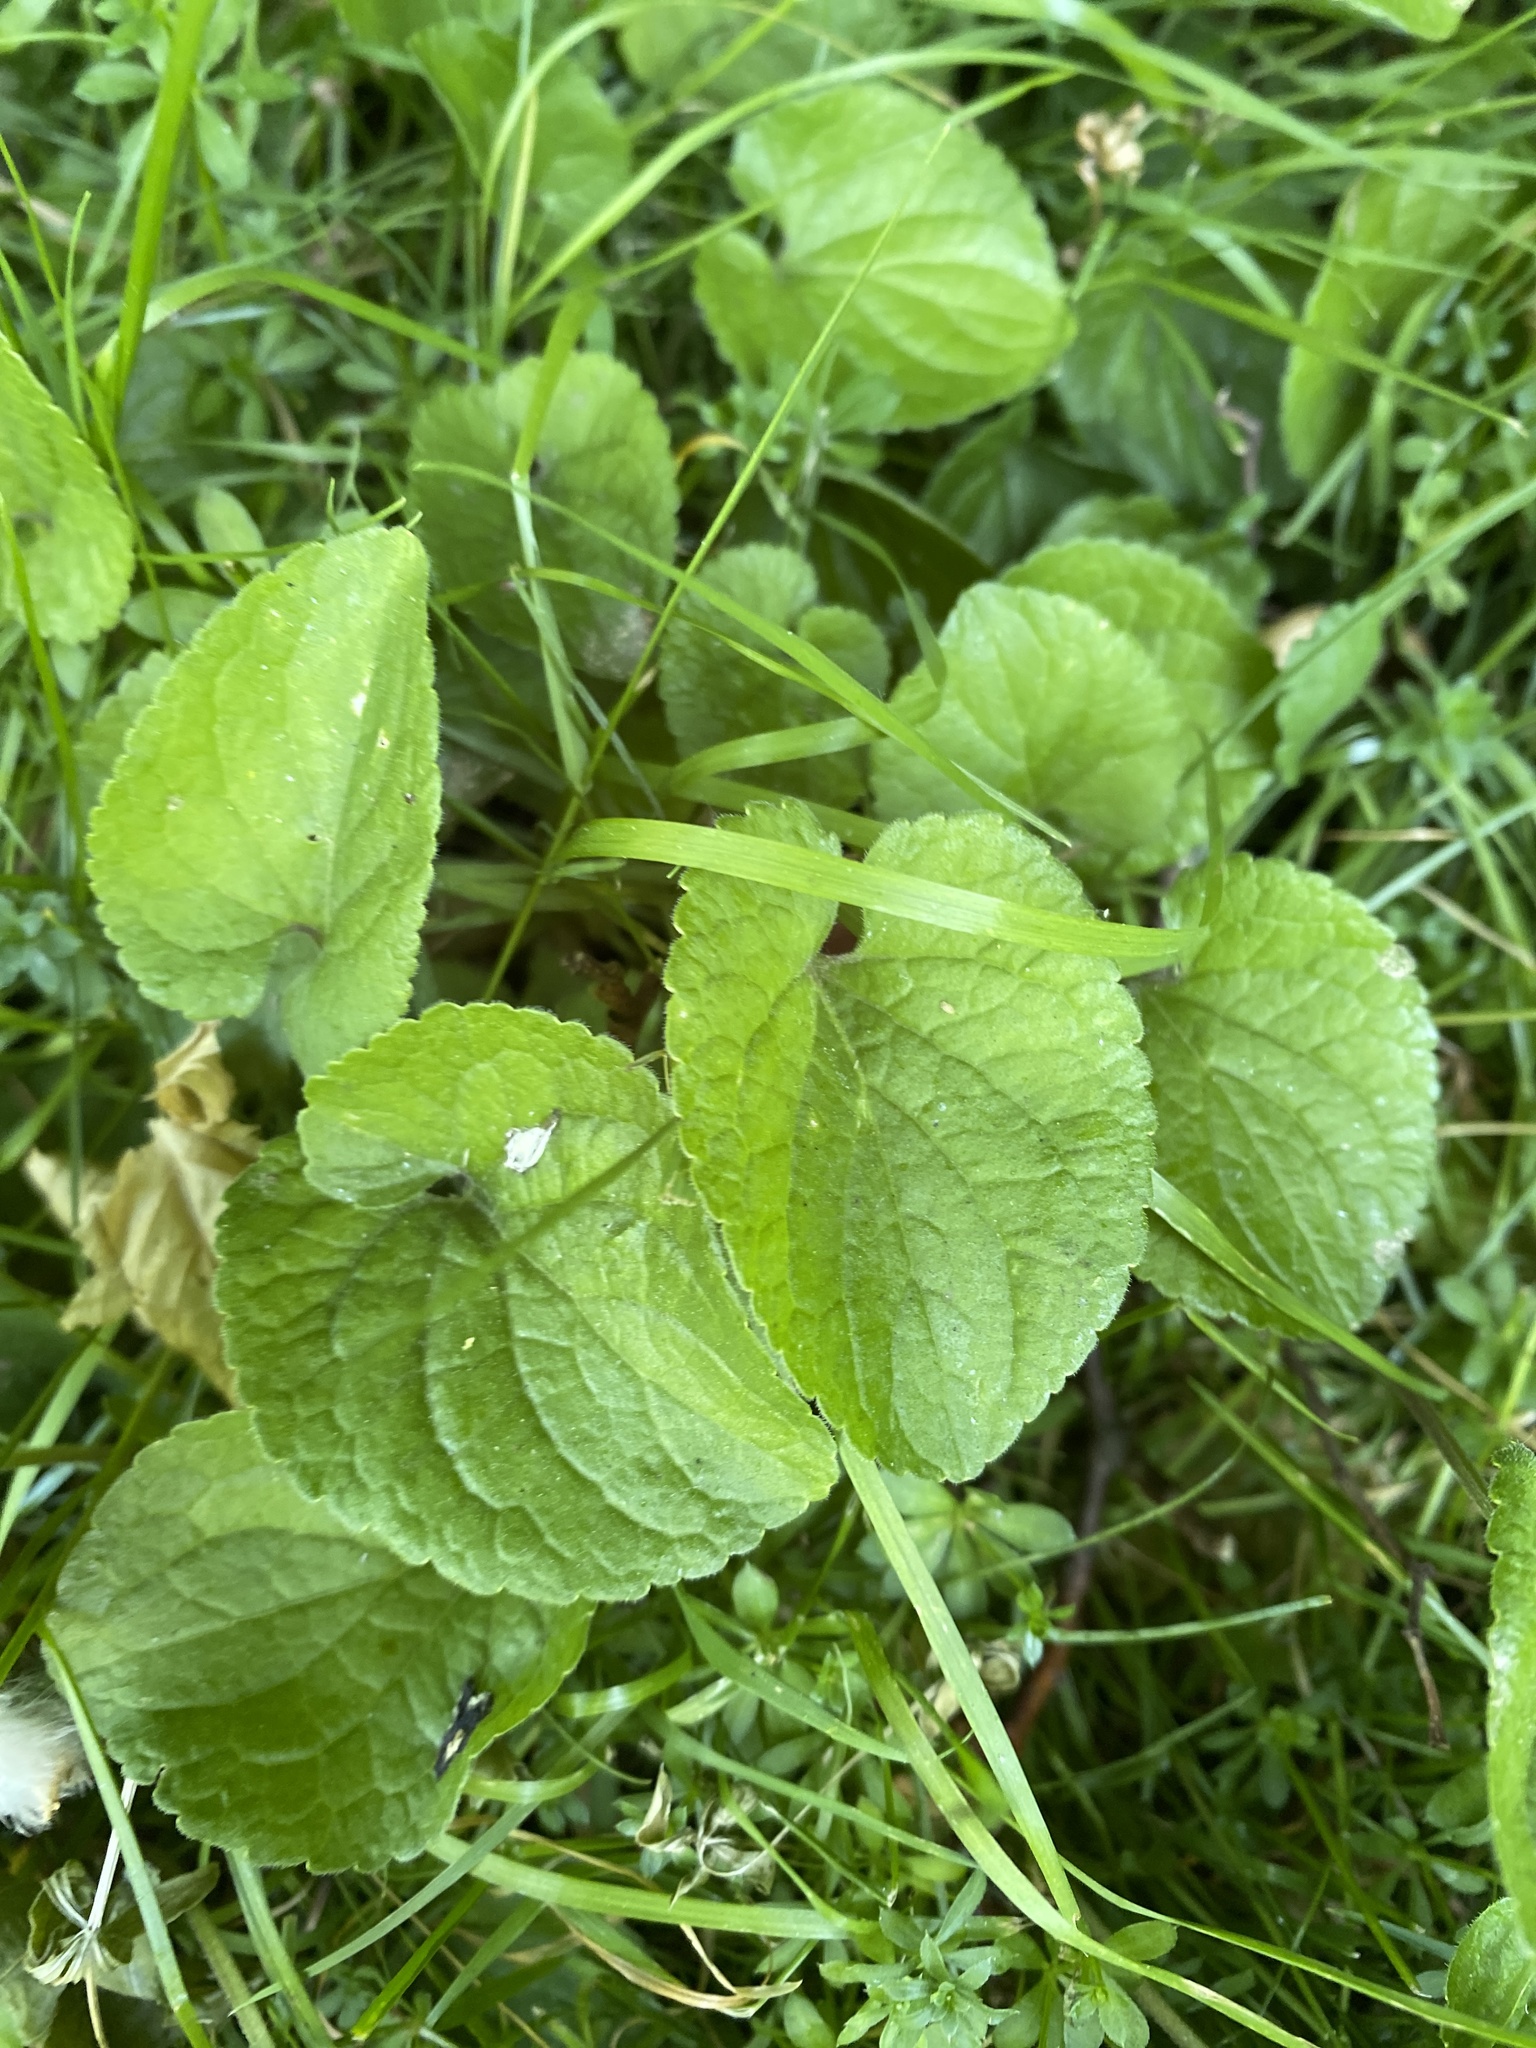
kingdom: Plantae
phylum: Tracheophyta
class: Magnoliopsida
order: Malpighiales
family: Violaceae
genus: Viola
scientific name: Viola odorata
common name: Sweet violet
